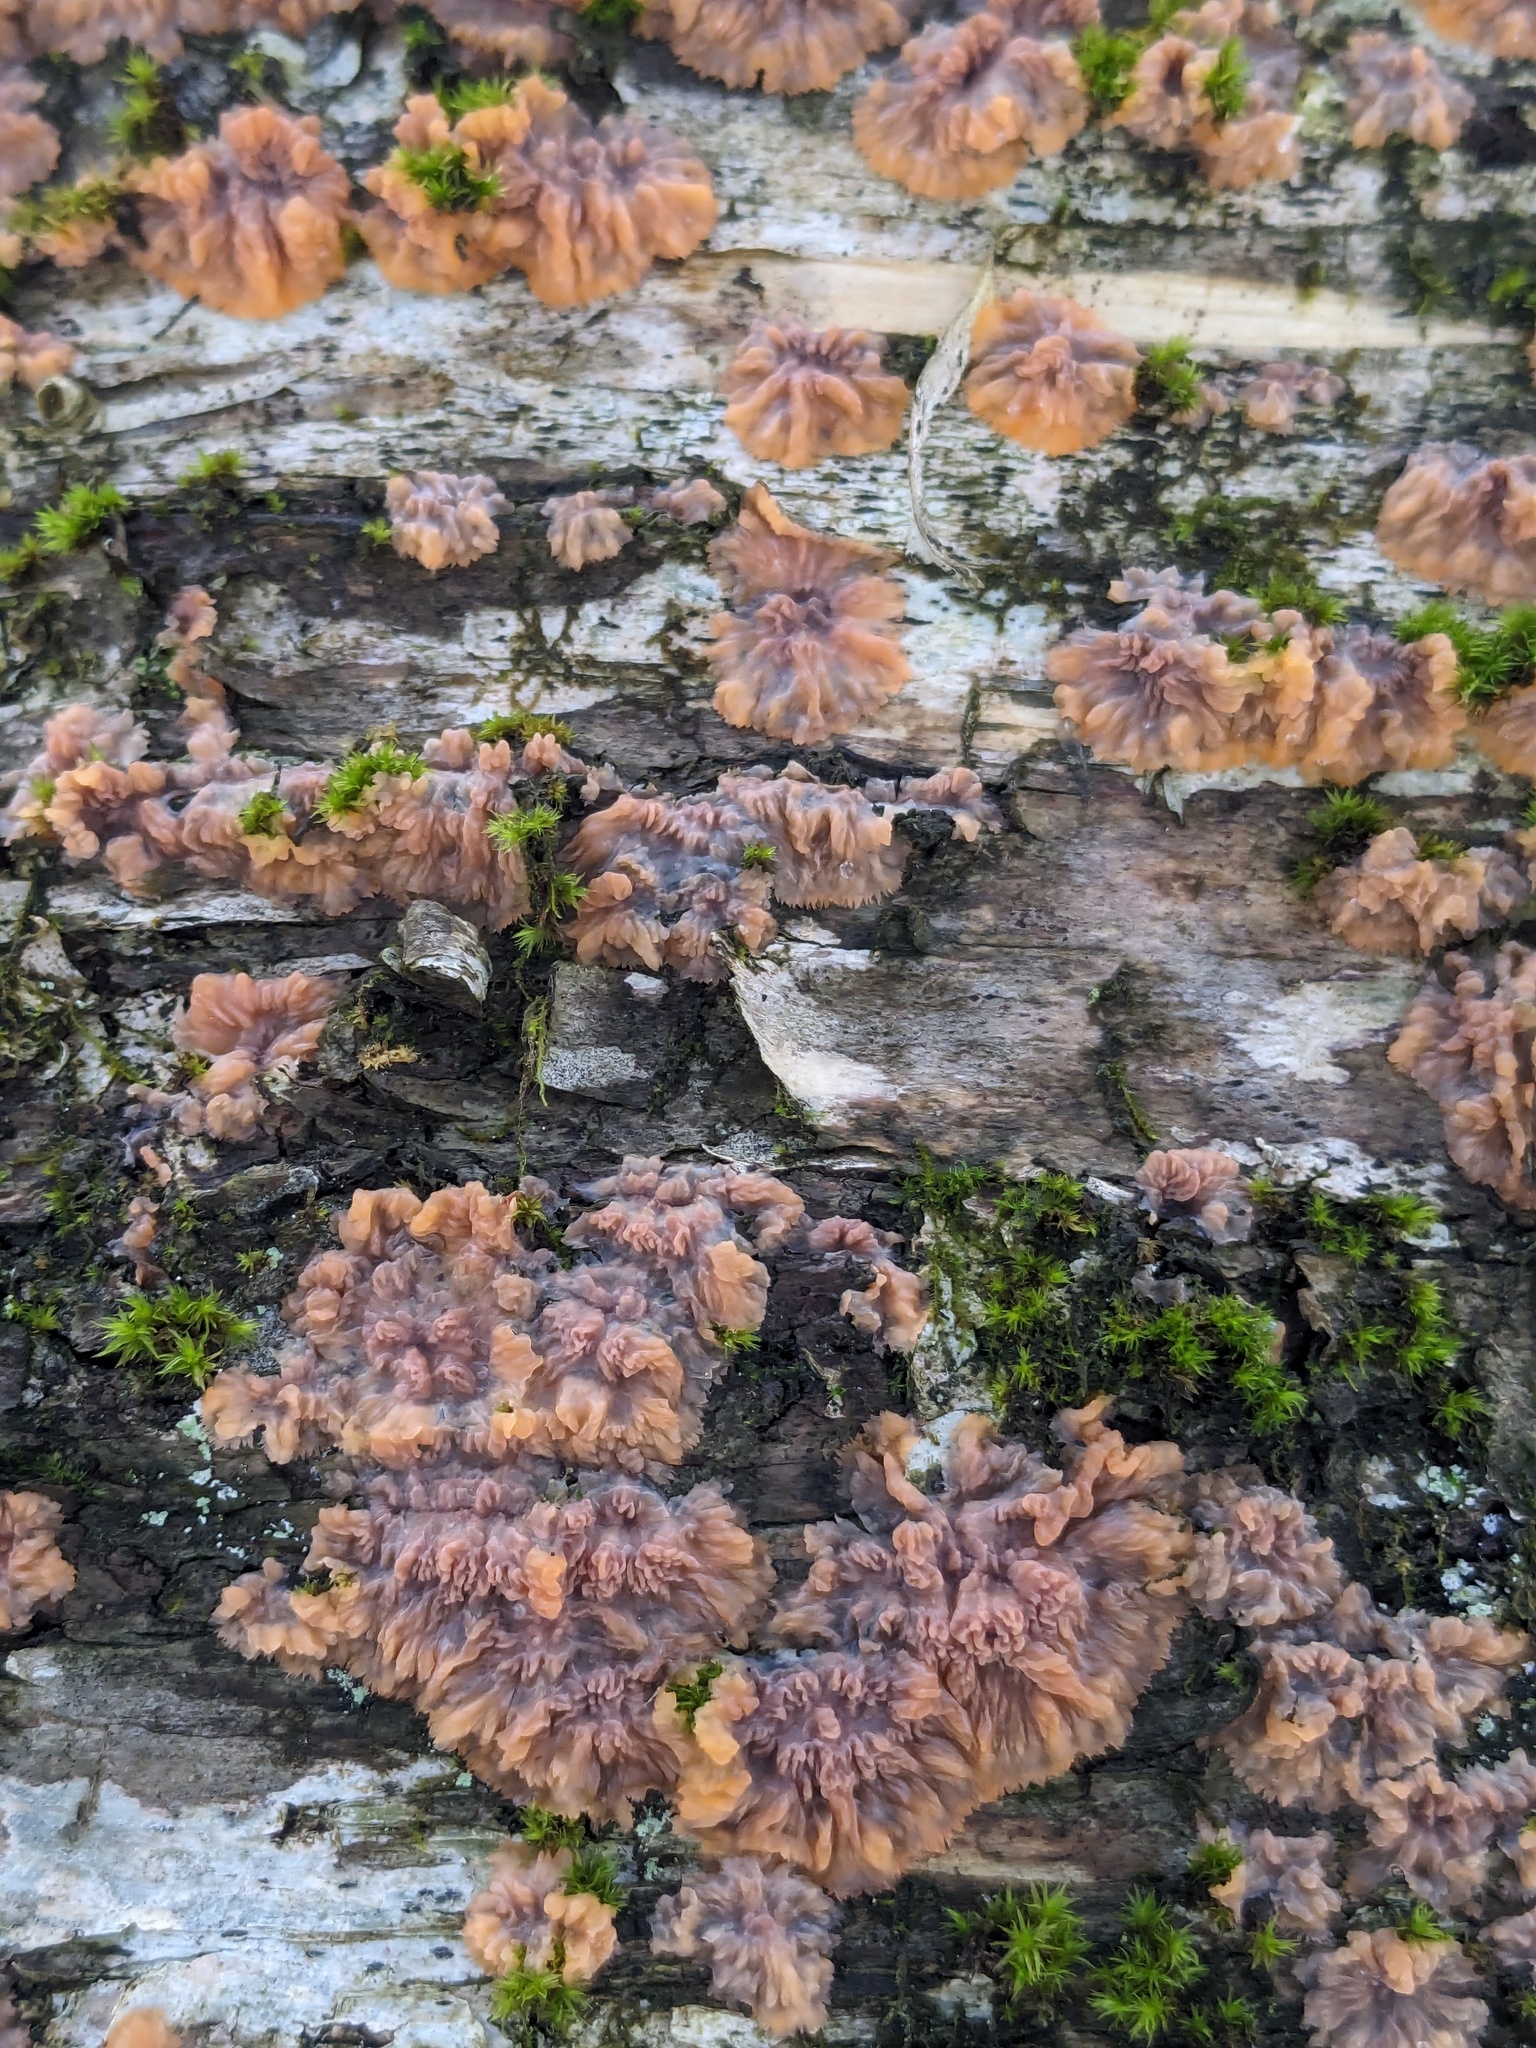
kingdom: Fungi
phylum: Basidiomycota
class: Agaricomycetes
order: Polyporales
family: Meruliaceae
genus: Phlebia
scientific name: Phlebia radiata
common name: Wrinkled crust
